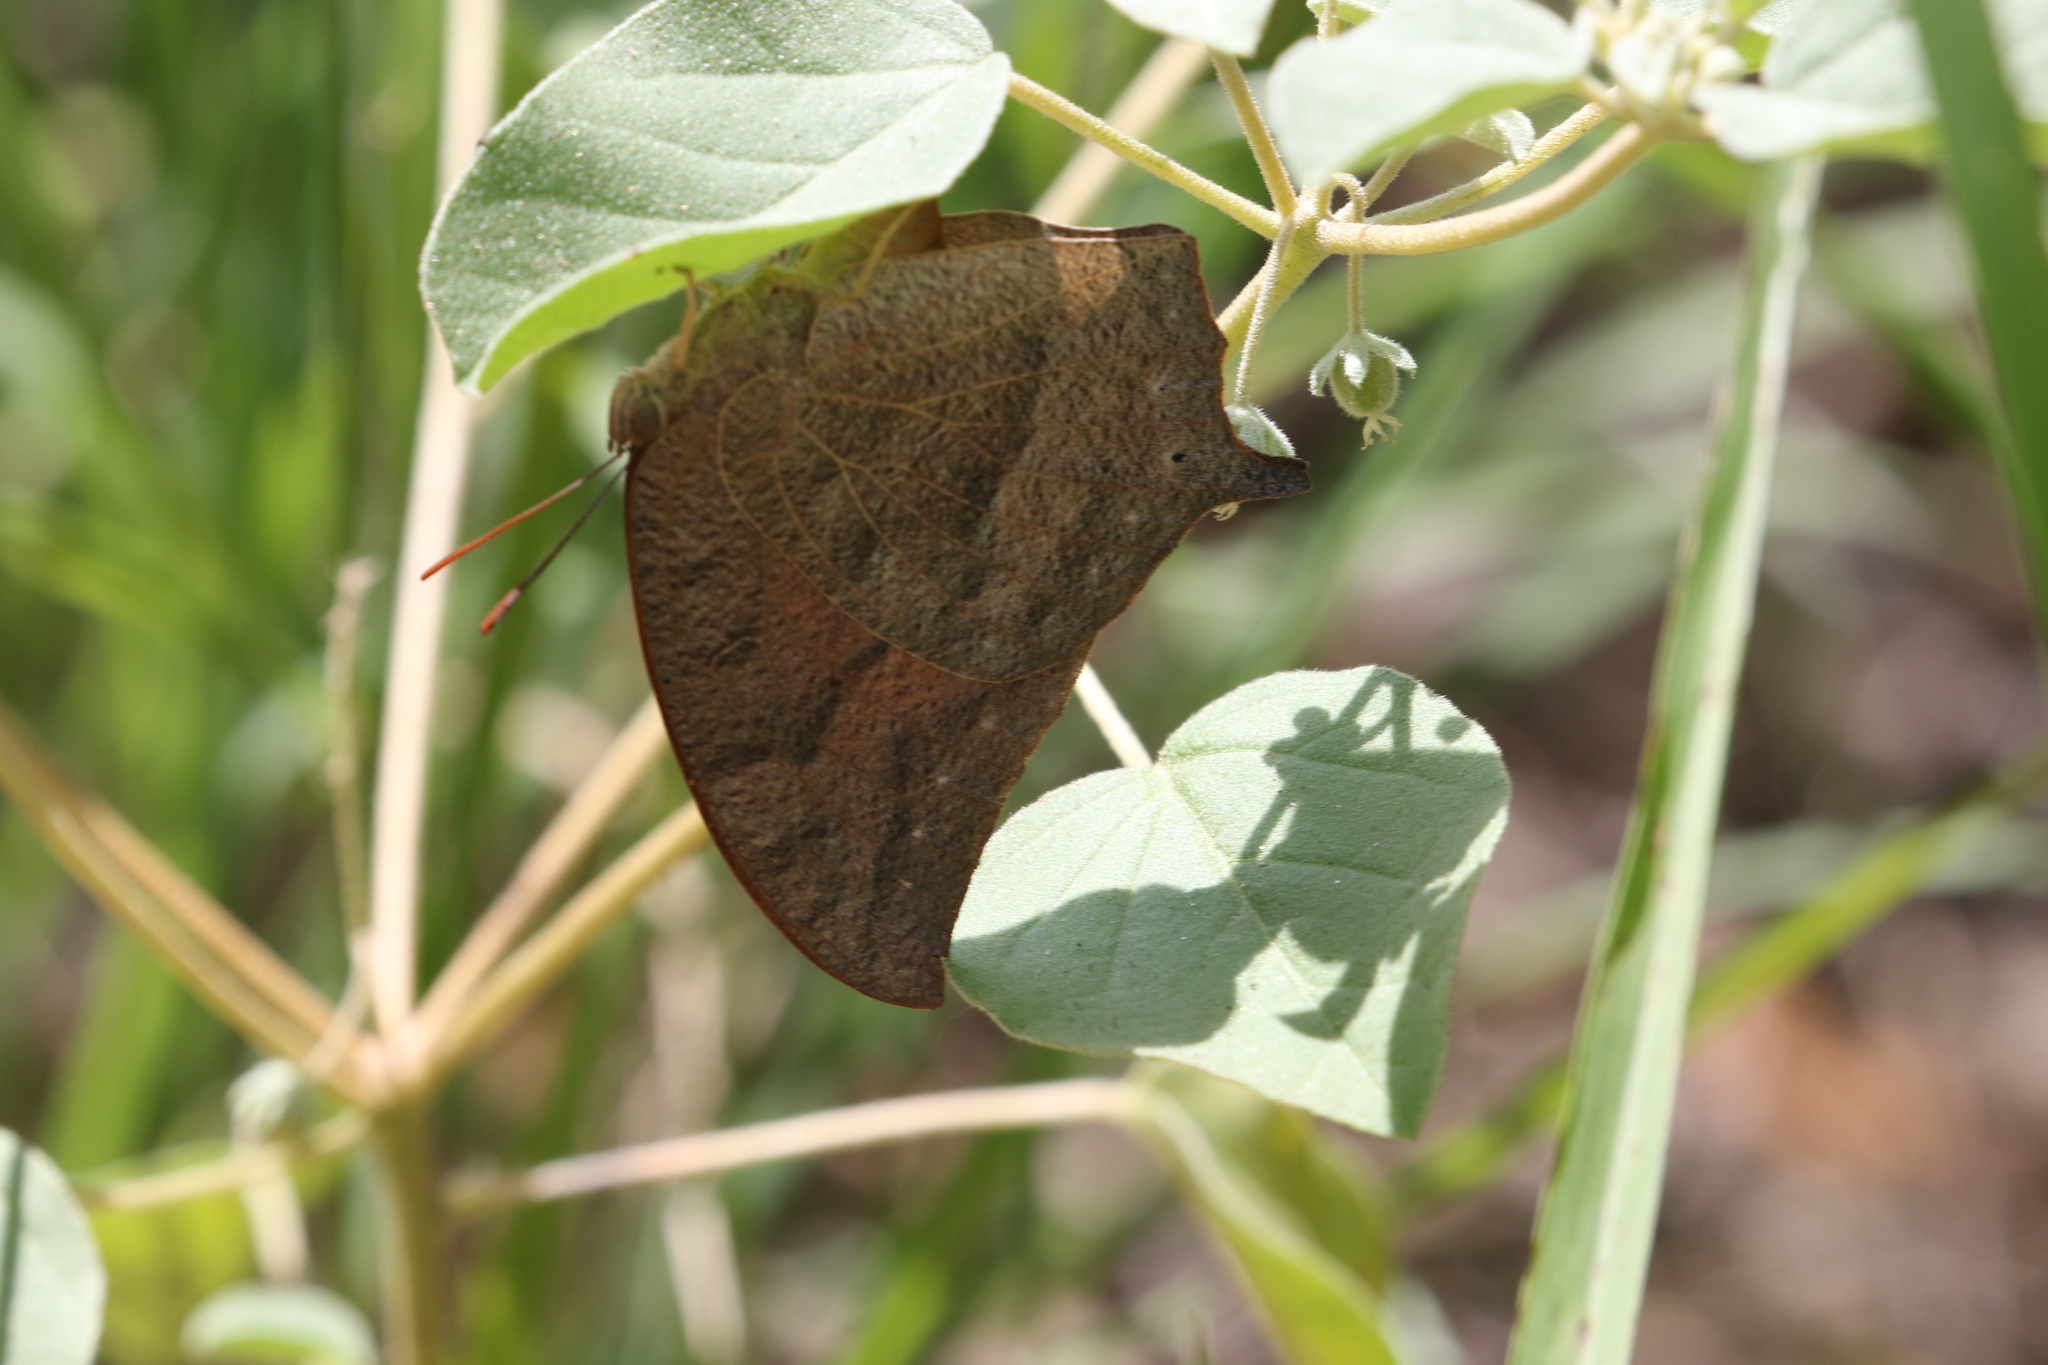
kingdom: Animalia
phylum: Arthropoda
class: Insecta
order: Lepidoptera
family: Nymphalidae
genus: Anaea
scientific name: Anaea andria
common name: Goatweed leafwing
